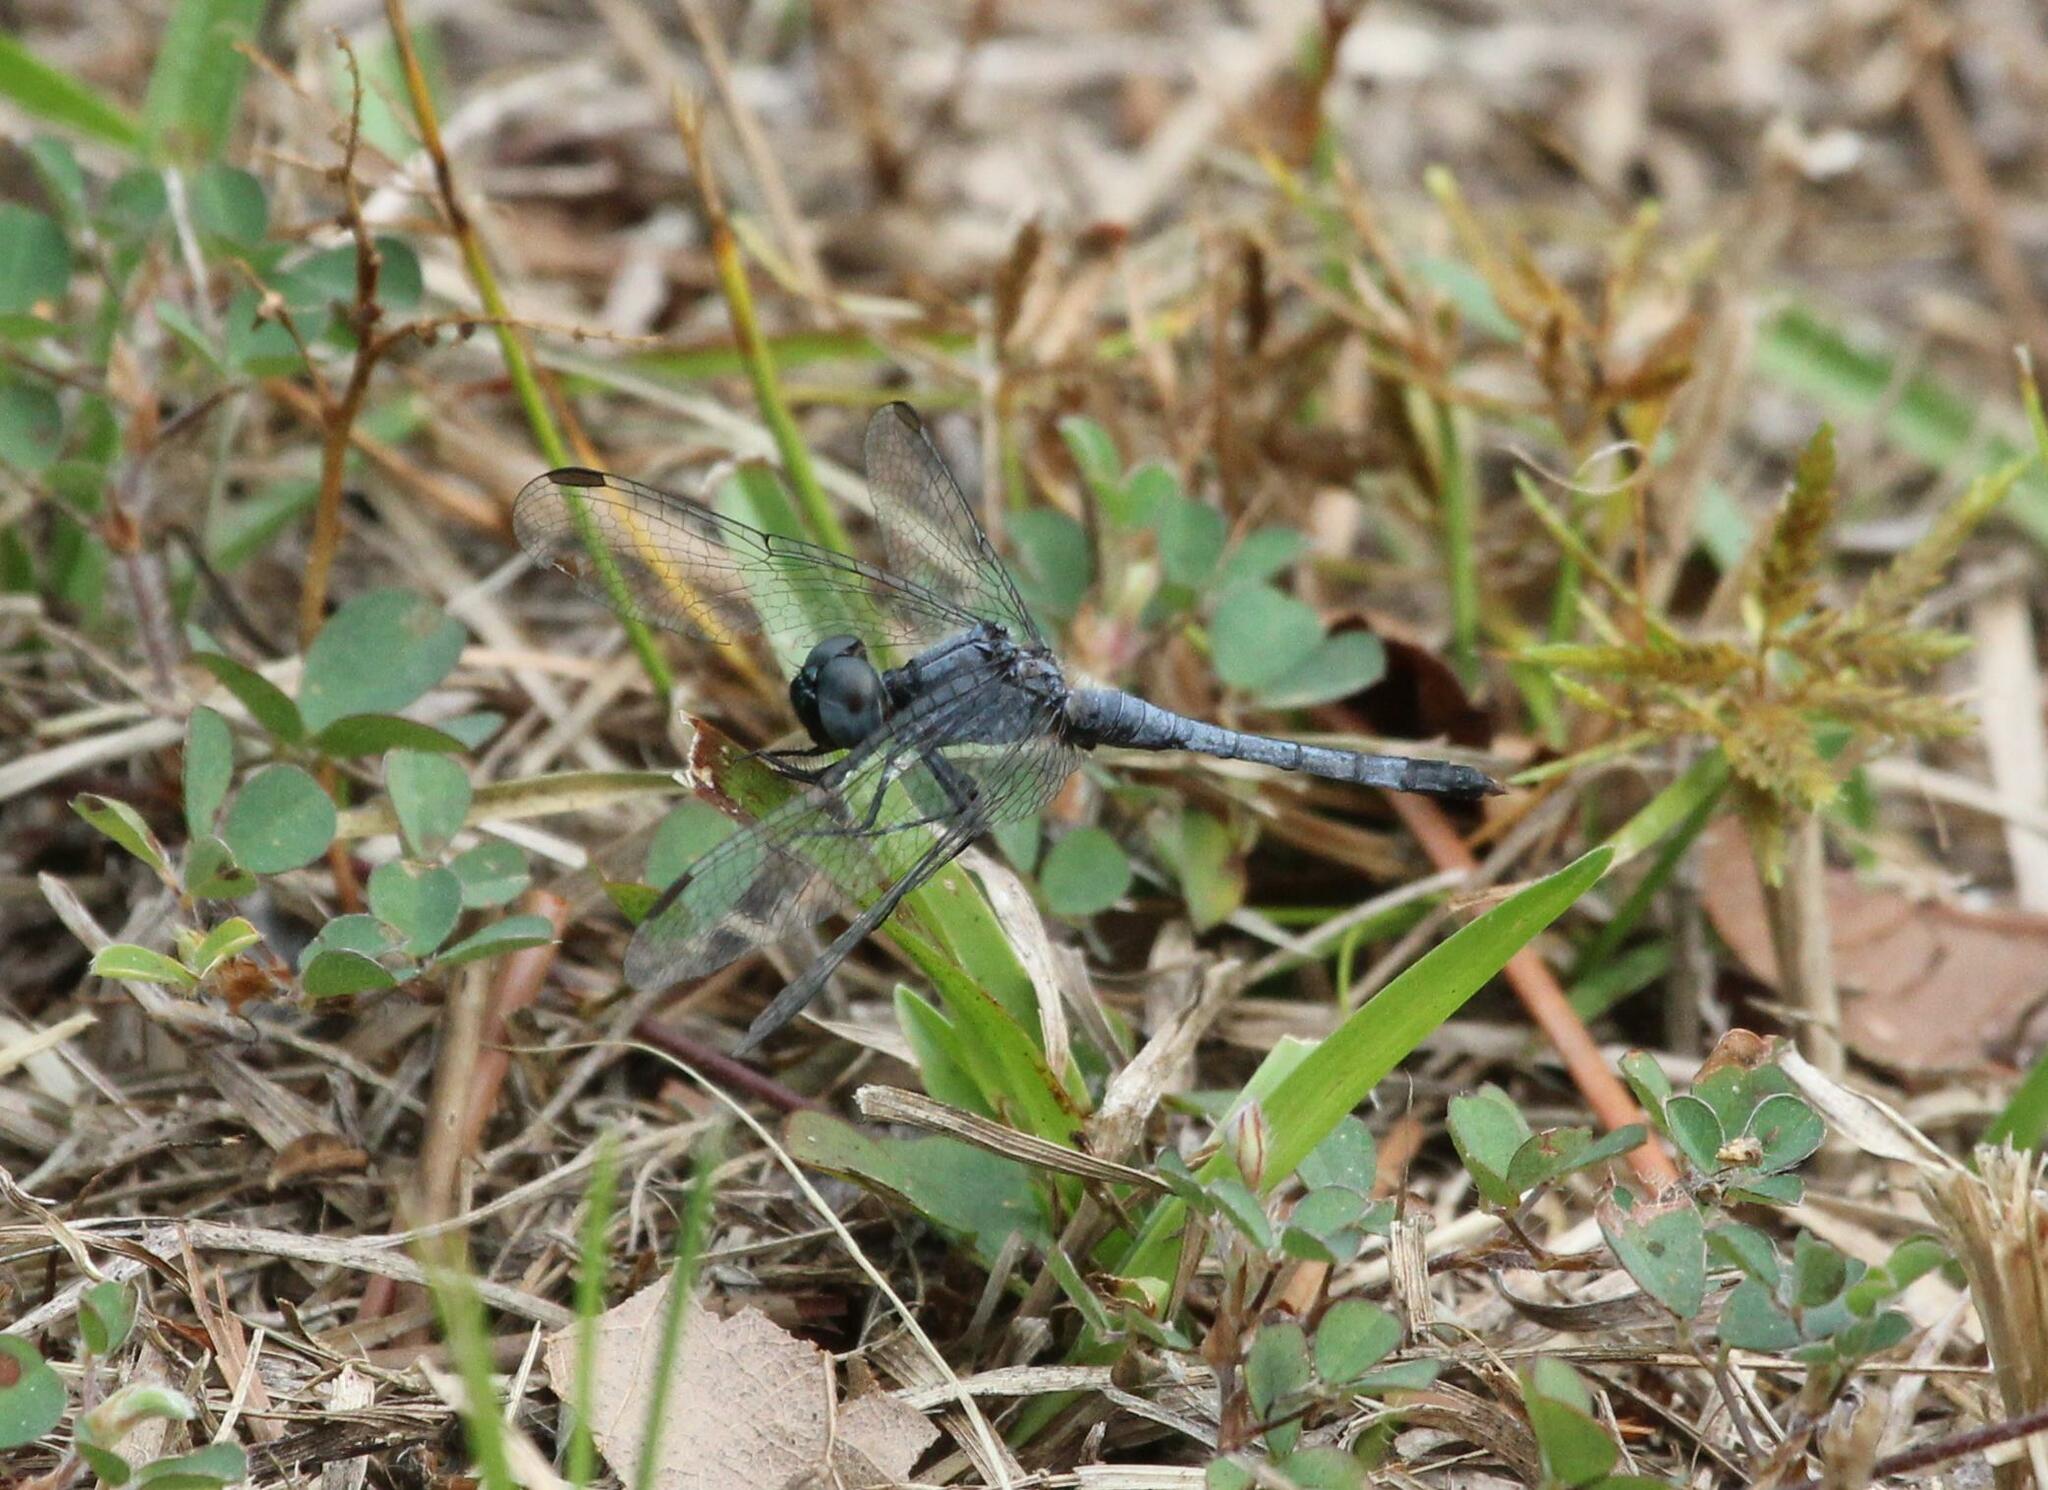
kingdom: Animalia
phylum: Arthropoda
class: Insecta
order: Odonata
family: Libellulidae
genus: Erythrodiplax
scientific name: Erythrodiplax minuscula
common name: Little blue dragonlet
